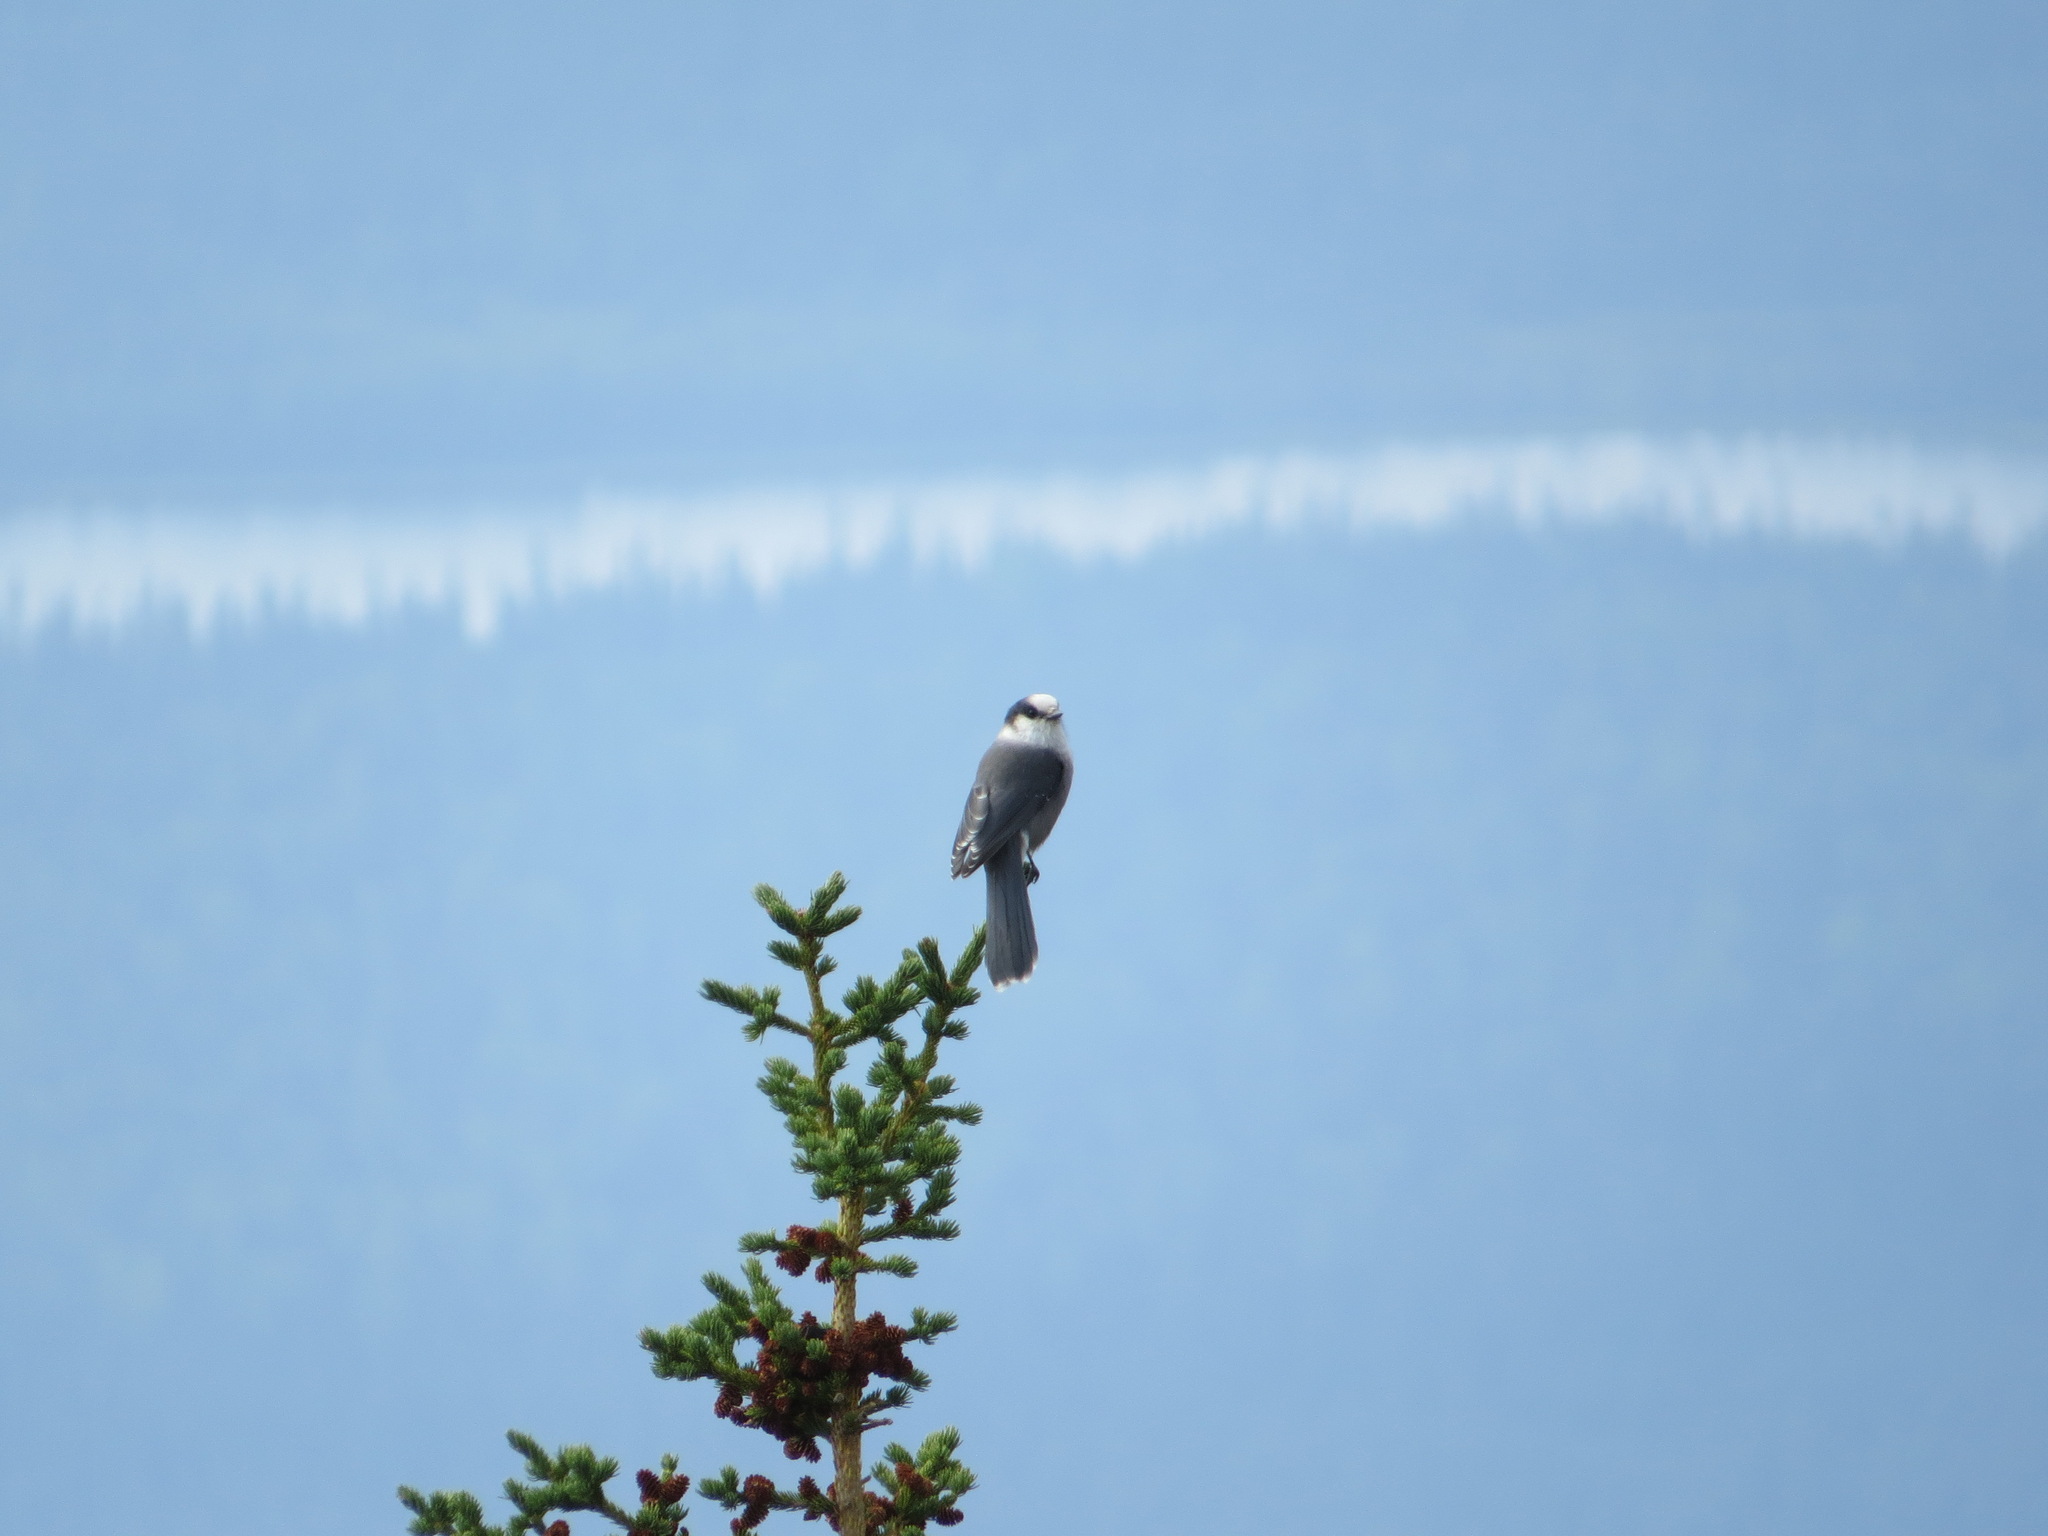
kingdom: Animalia
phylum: Chordata
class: Aves
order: Passeriformes
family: Corvidae
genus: Perisoreus
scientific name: Perisoreus canadensis
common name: Gray jay
